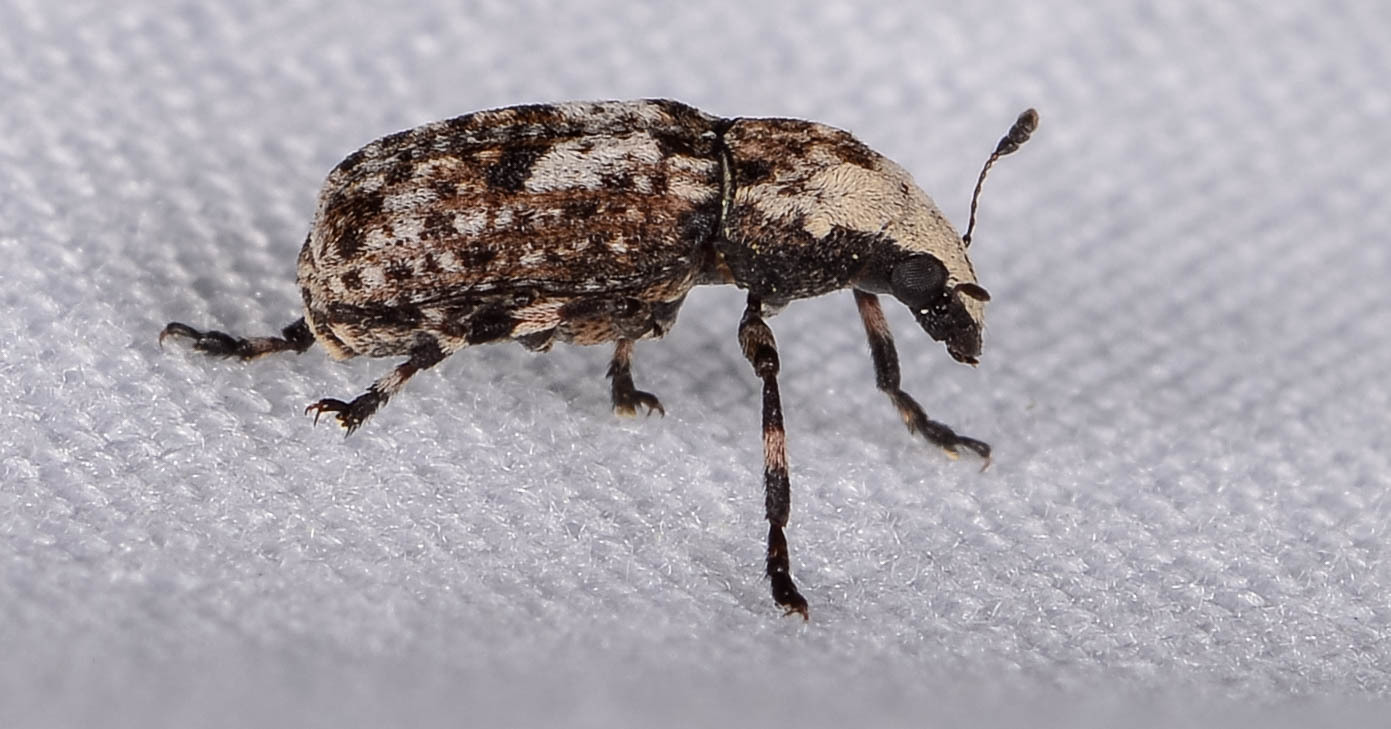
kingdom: Animalia
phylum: Arthropoda
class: Insecta
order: Coleoptera
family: Anthribidae
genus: Euparius
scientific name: Euparius marmoreus
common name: Marbled fungus weevil
